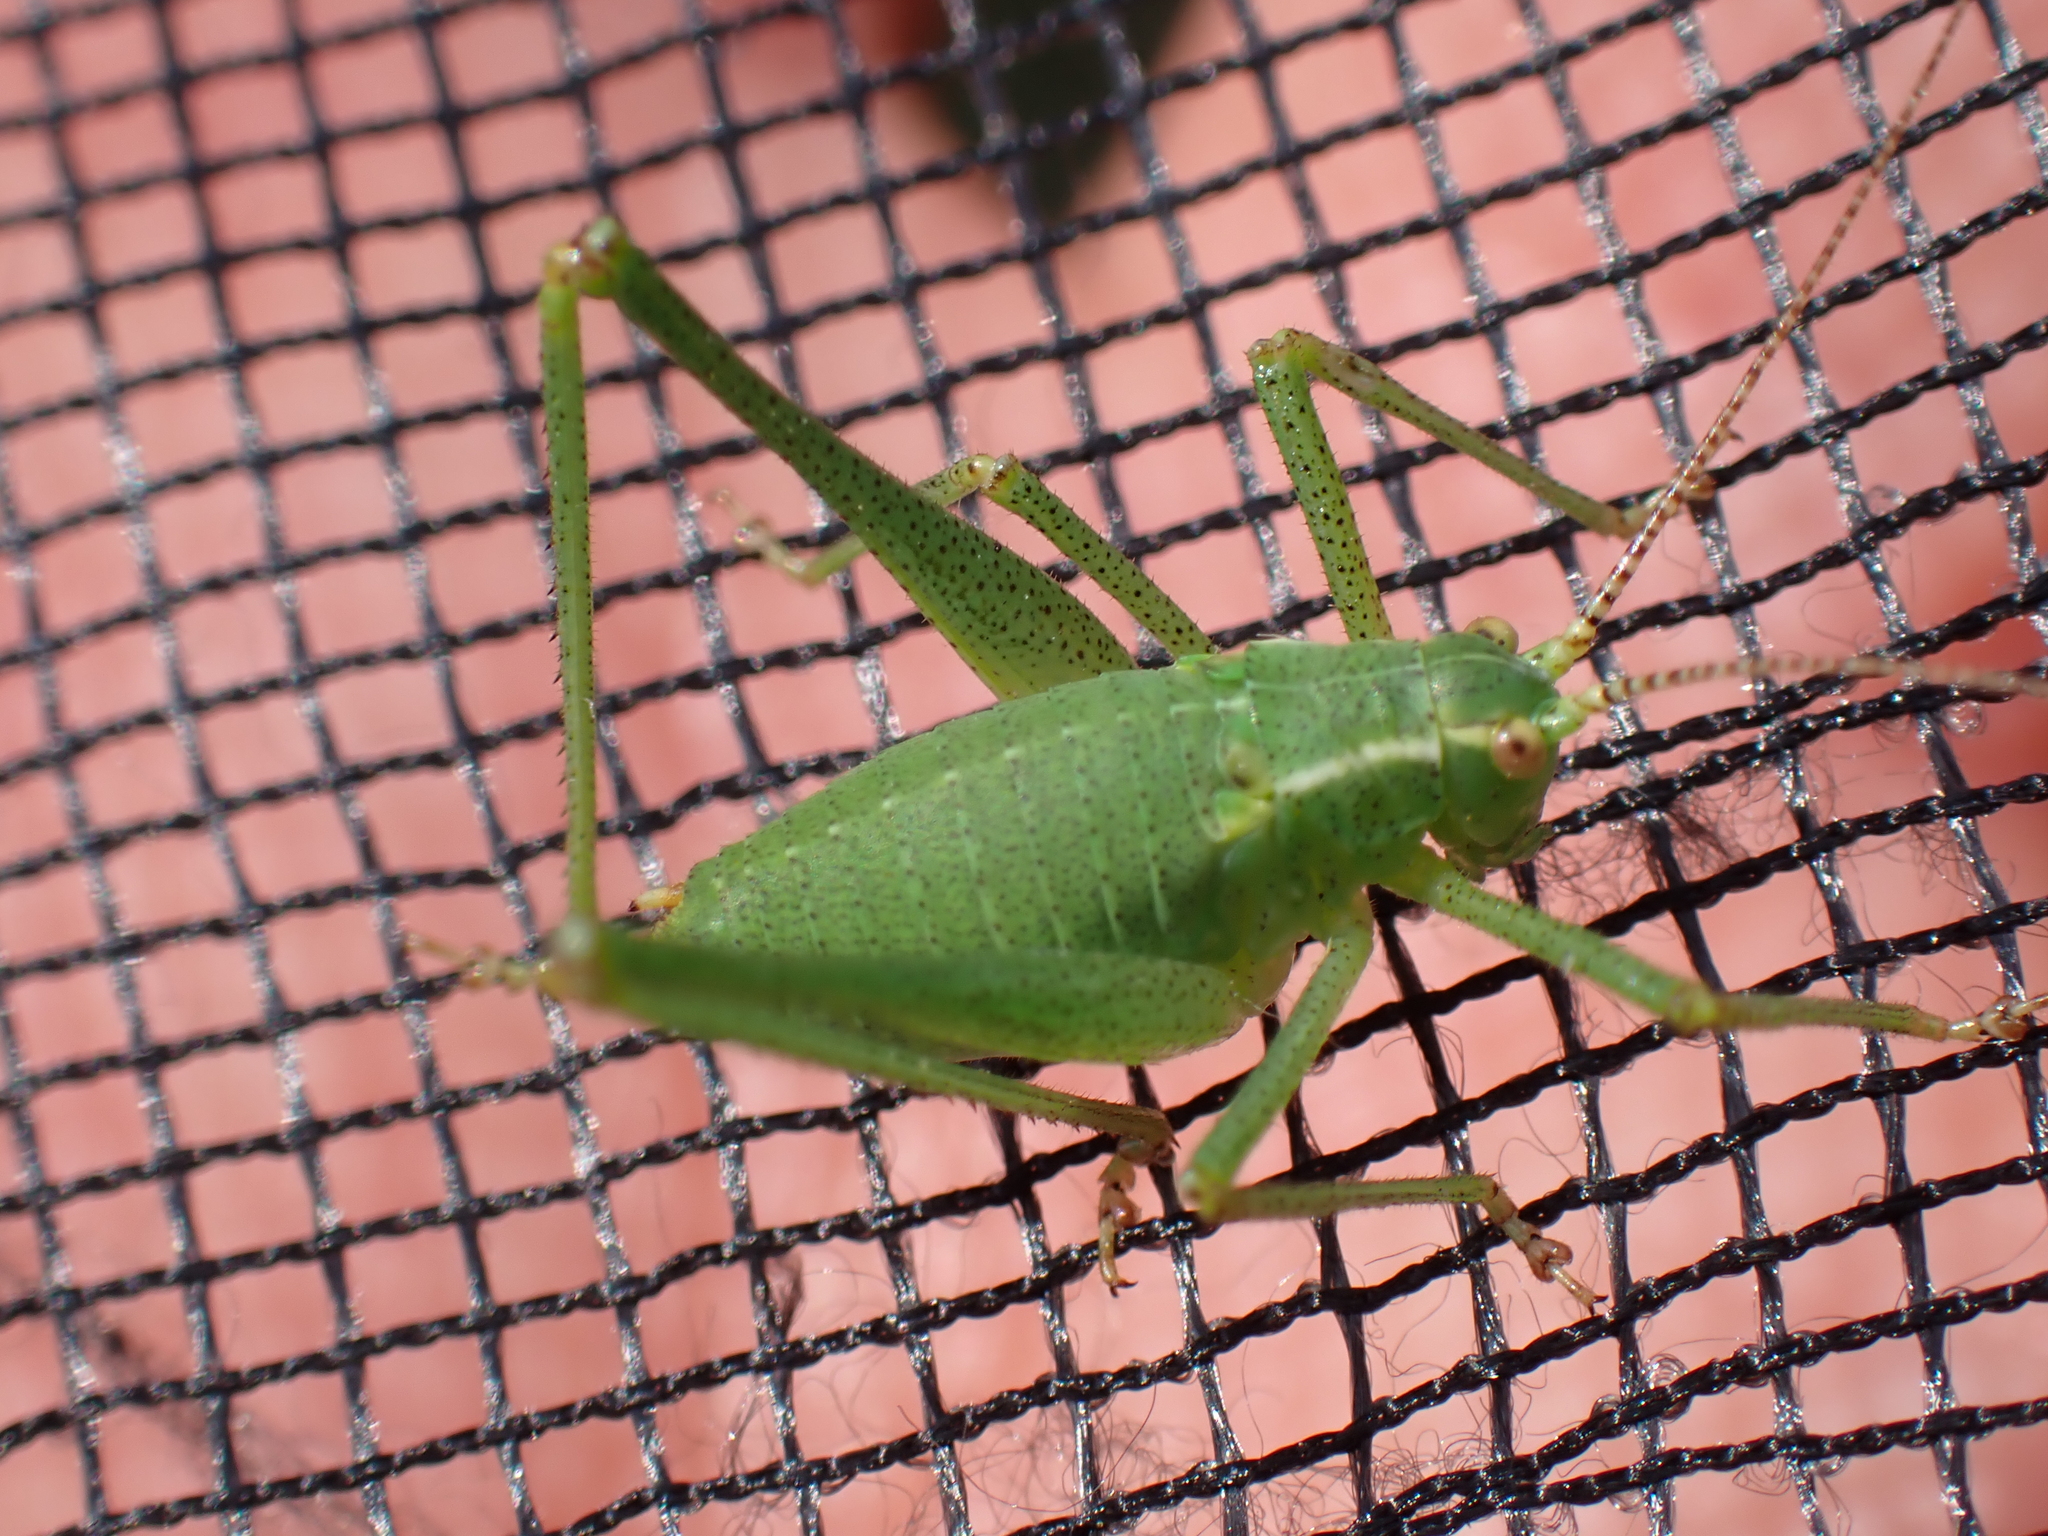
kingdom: Animalia
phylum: Arthropoda
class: Insecta
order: Orthoptera
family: Tettigoniidae
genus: Leptophyes
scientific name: Leptophyes punctatissima
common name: Speckled bush-cricket
